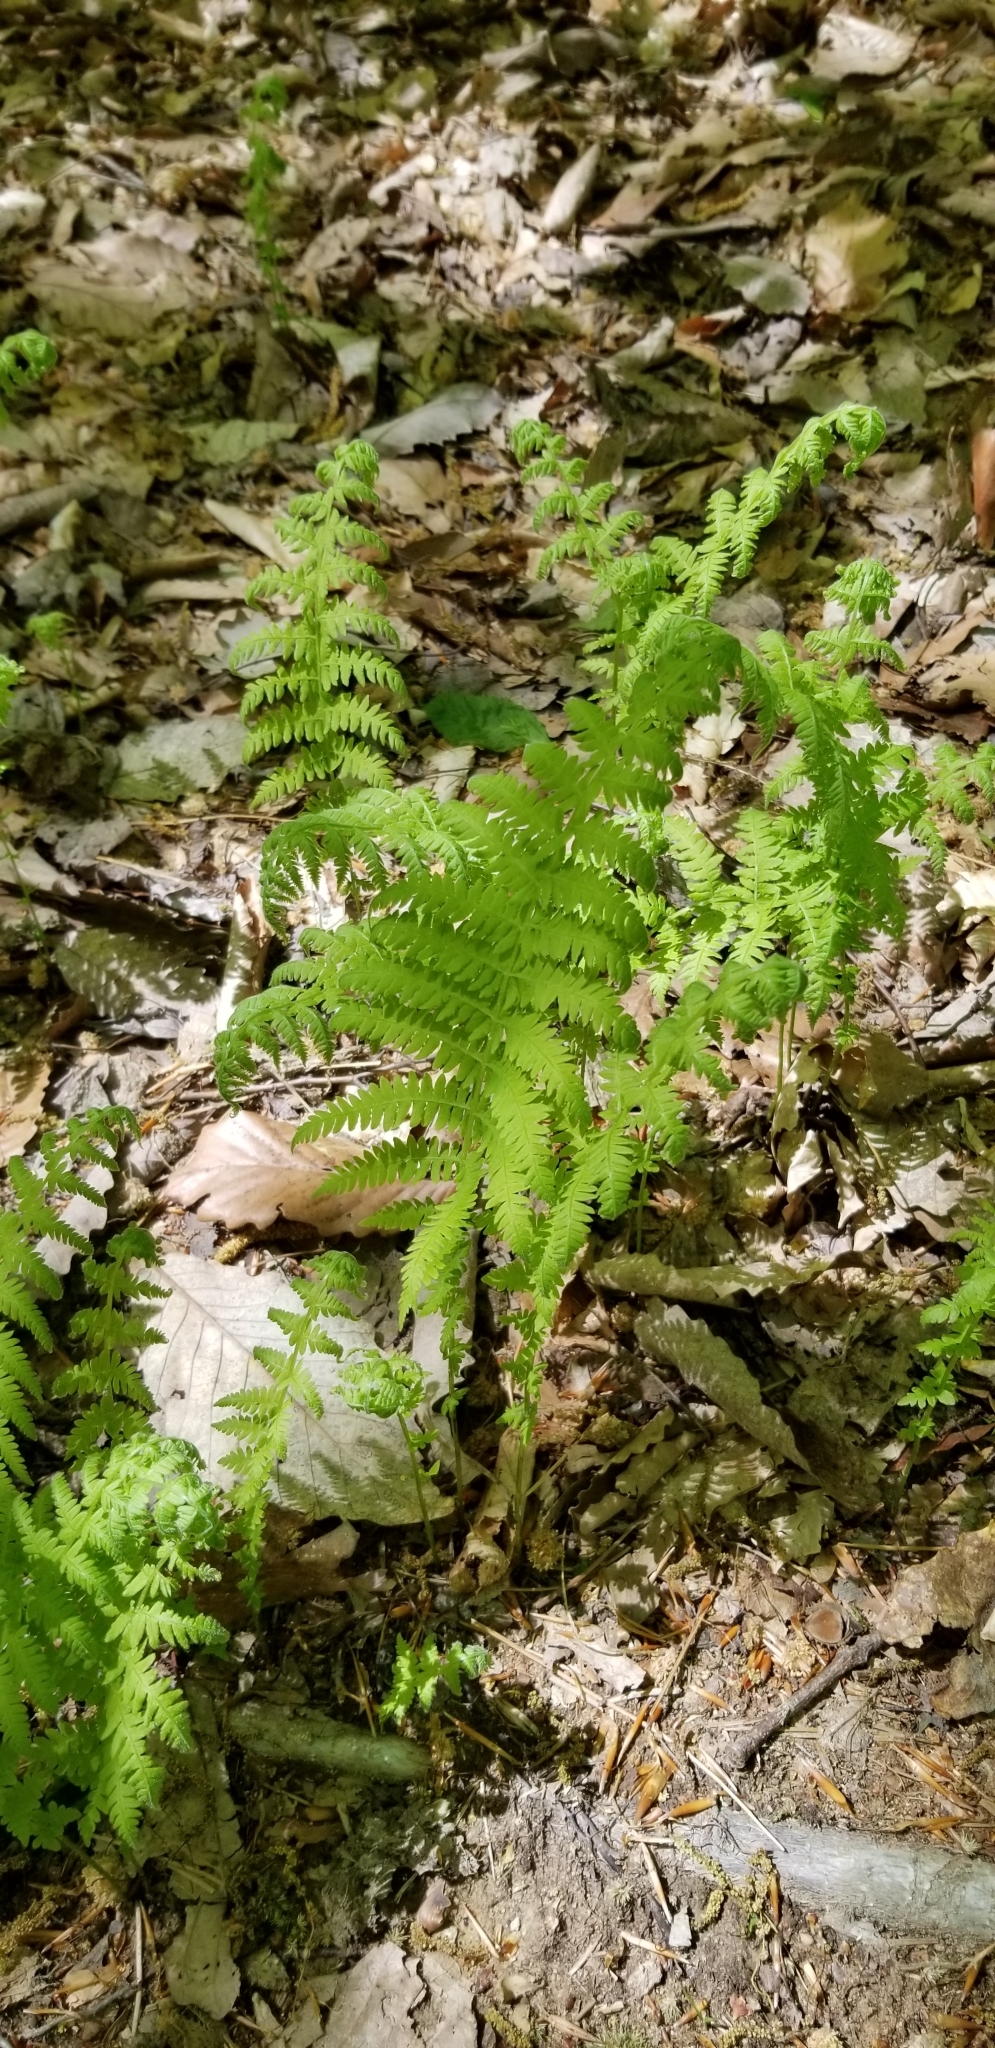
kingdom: Plantae
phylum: Tracheophyta
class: Polypodiopsida
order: Polypodiales
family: Thelypteridaceae
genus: Amauropelta
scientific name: Amauropelta noveboracensis
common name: New york fern
